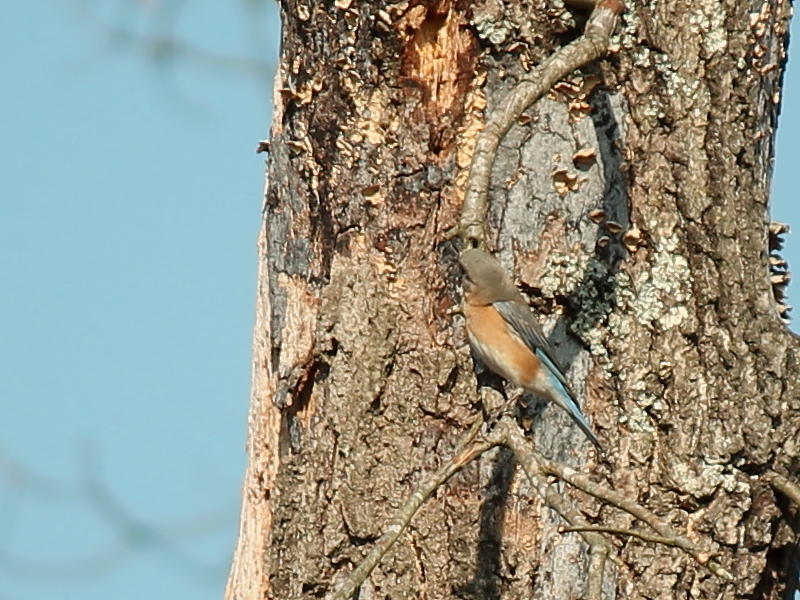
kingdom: Animalia
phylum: Chordata
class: Aves
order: Passeriformes
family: Turdidae
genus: Sialia
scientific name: Sialia sialis
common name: Eastern bluebird
